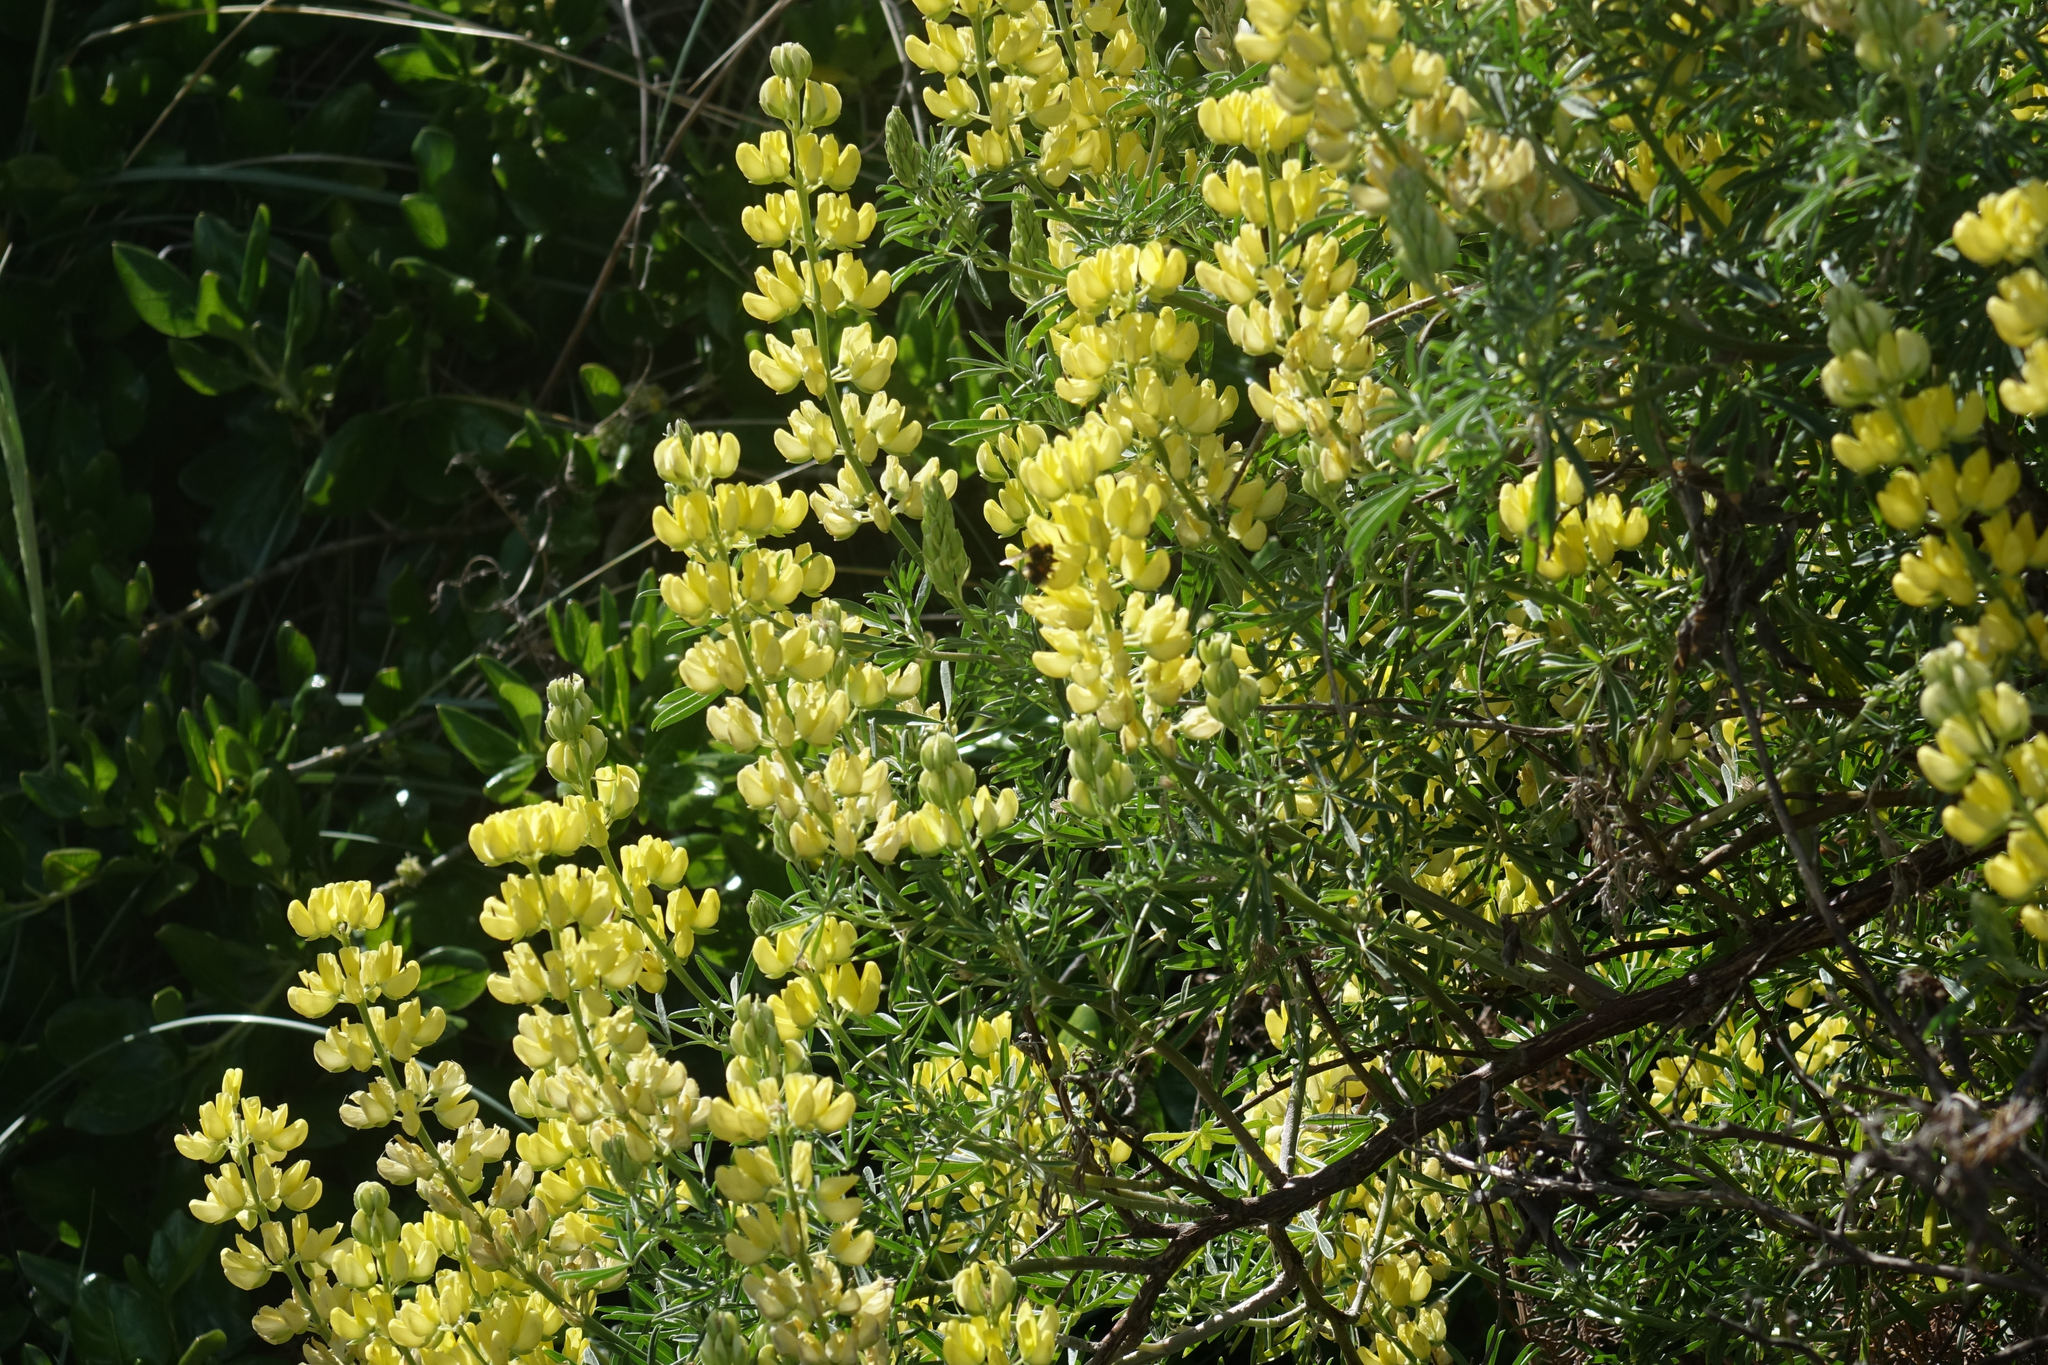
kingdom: Plantae
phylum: Tracheophyta
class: Magnoliopsida
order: Fabales
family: Fabaceae
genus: Lupinus
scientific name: Lupinus arboreus
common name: Yellow bush lupine
